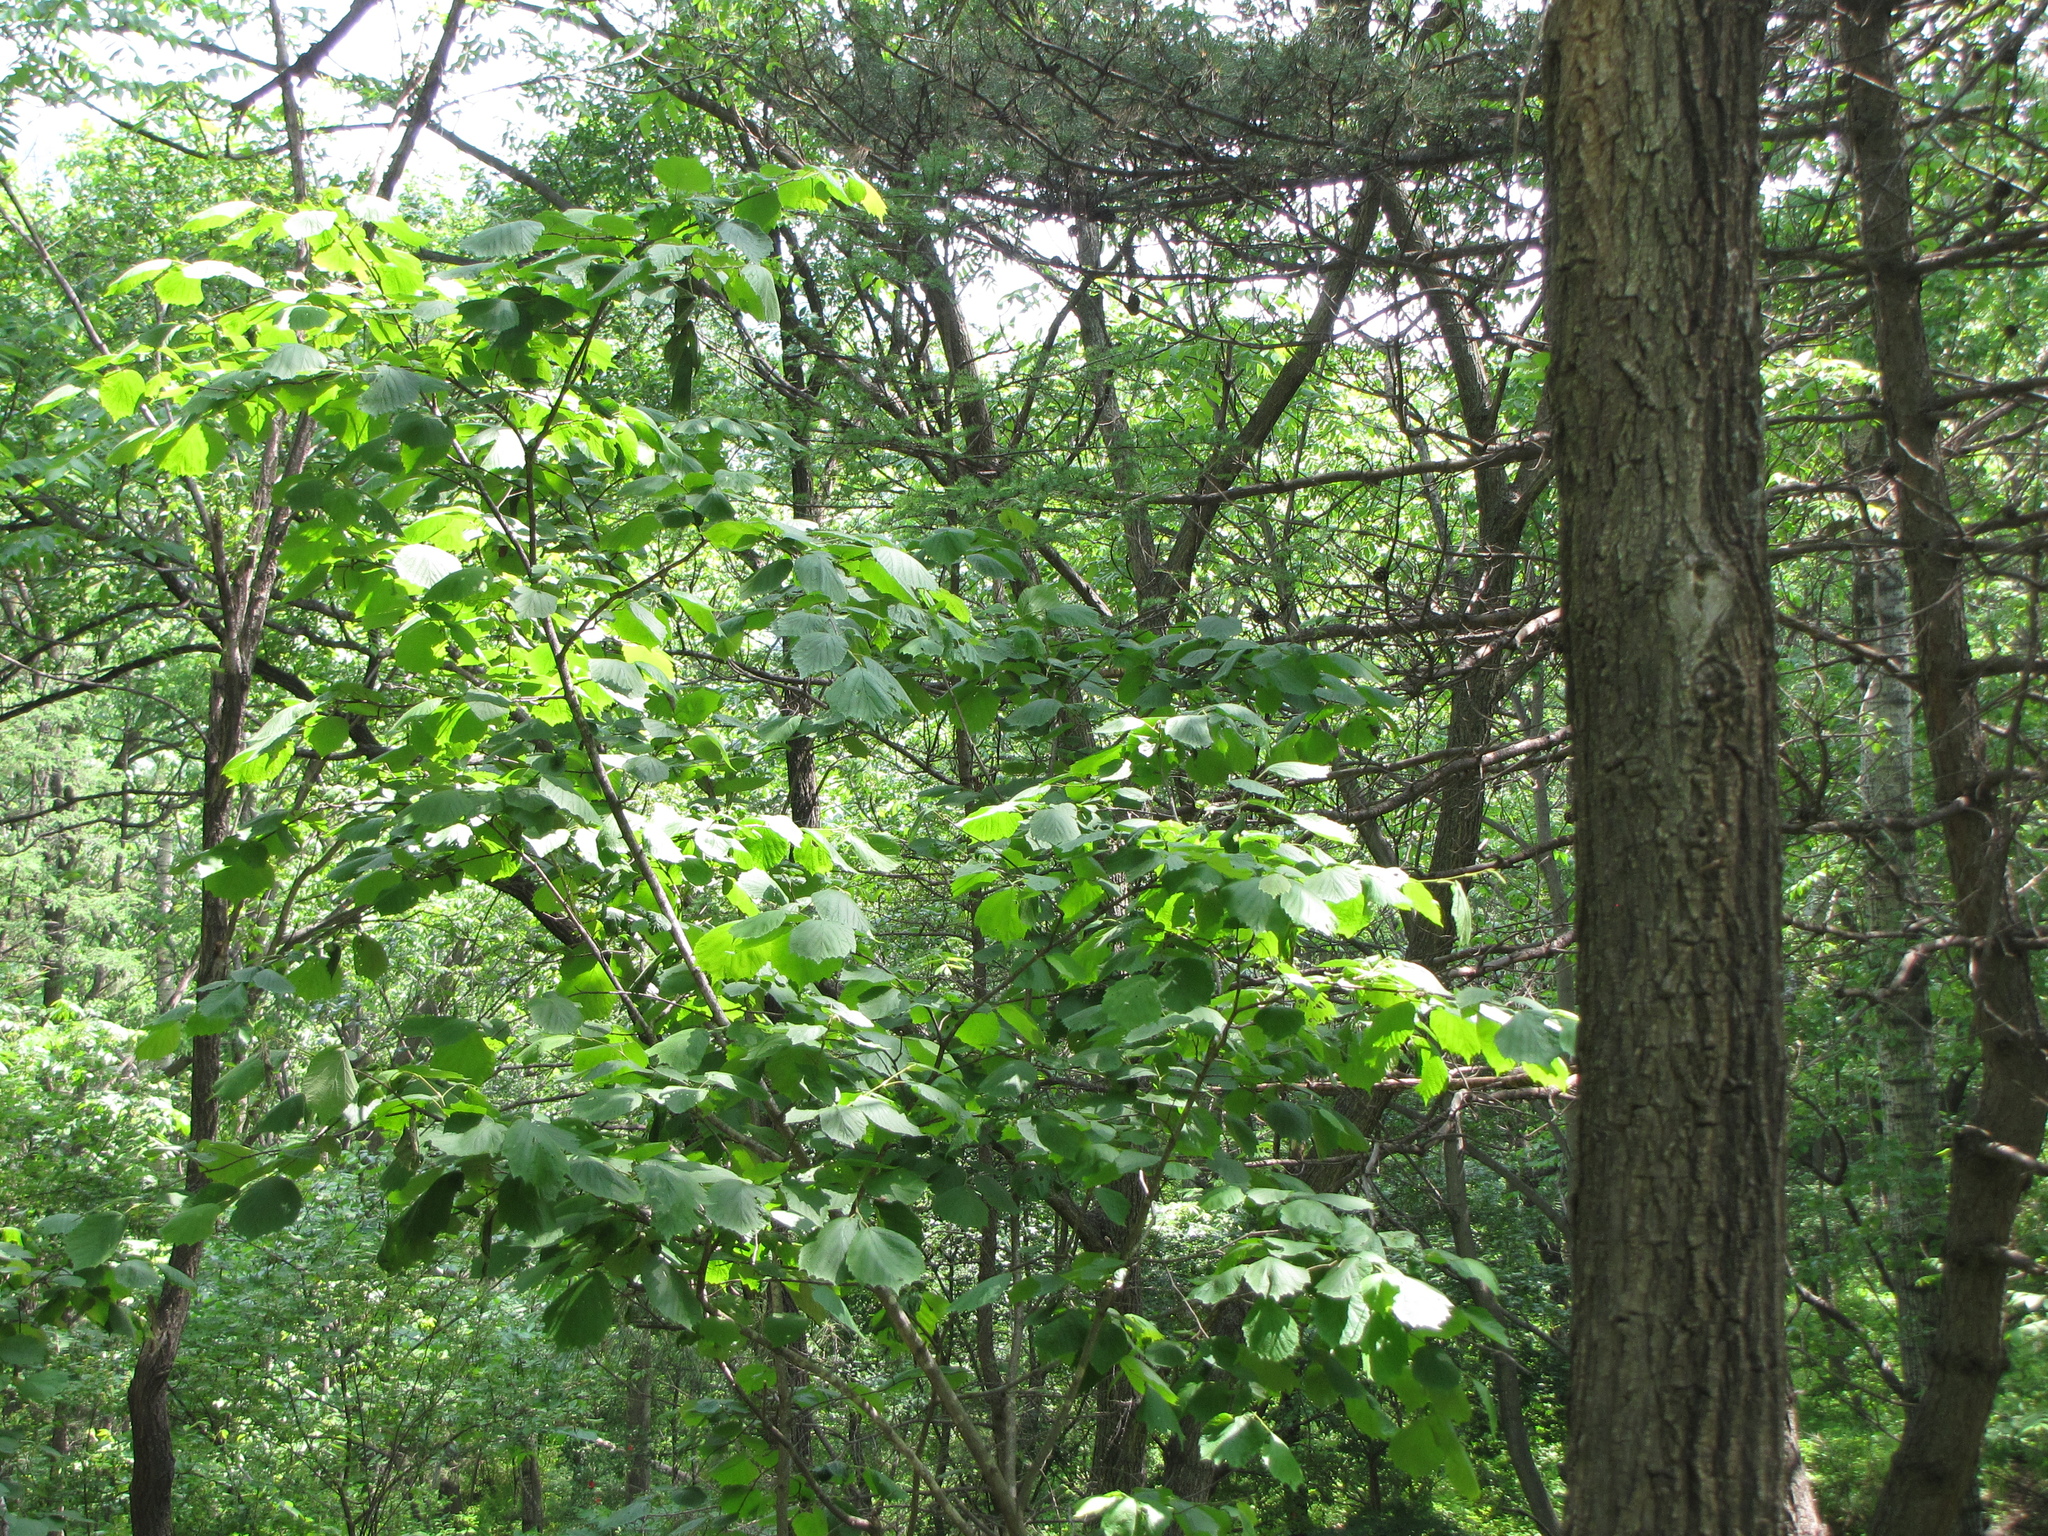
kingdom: Plantae
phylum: Tracheophyta
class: Magnoliopsida
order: Fagales
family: Betulaceae
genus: Corylus
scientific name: Corylus sieboldiana
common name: Japanese hazel
